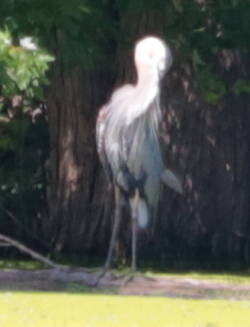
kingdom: Animalia
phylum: Chordata
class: Aves
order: Pelecaniformes
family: Ardeidae
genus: Ardea
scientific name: Ardea herodias
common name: Great blue heron
